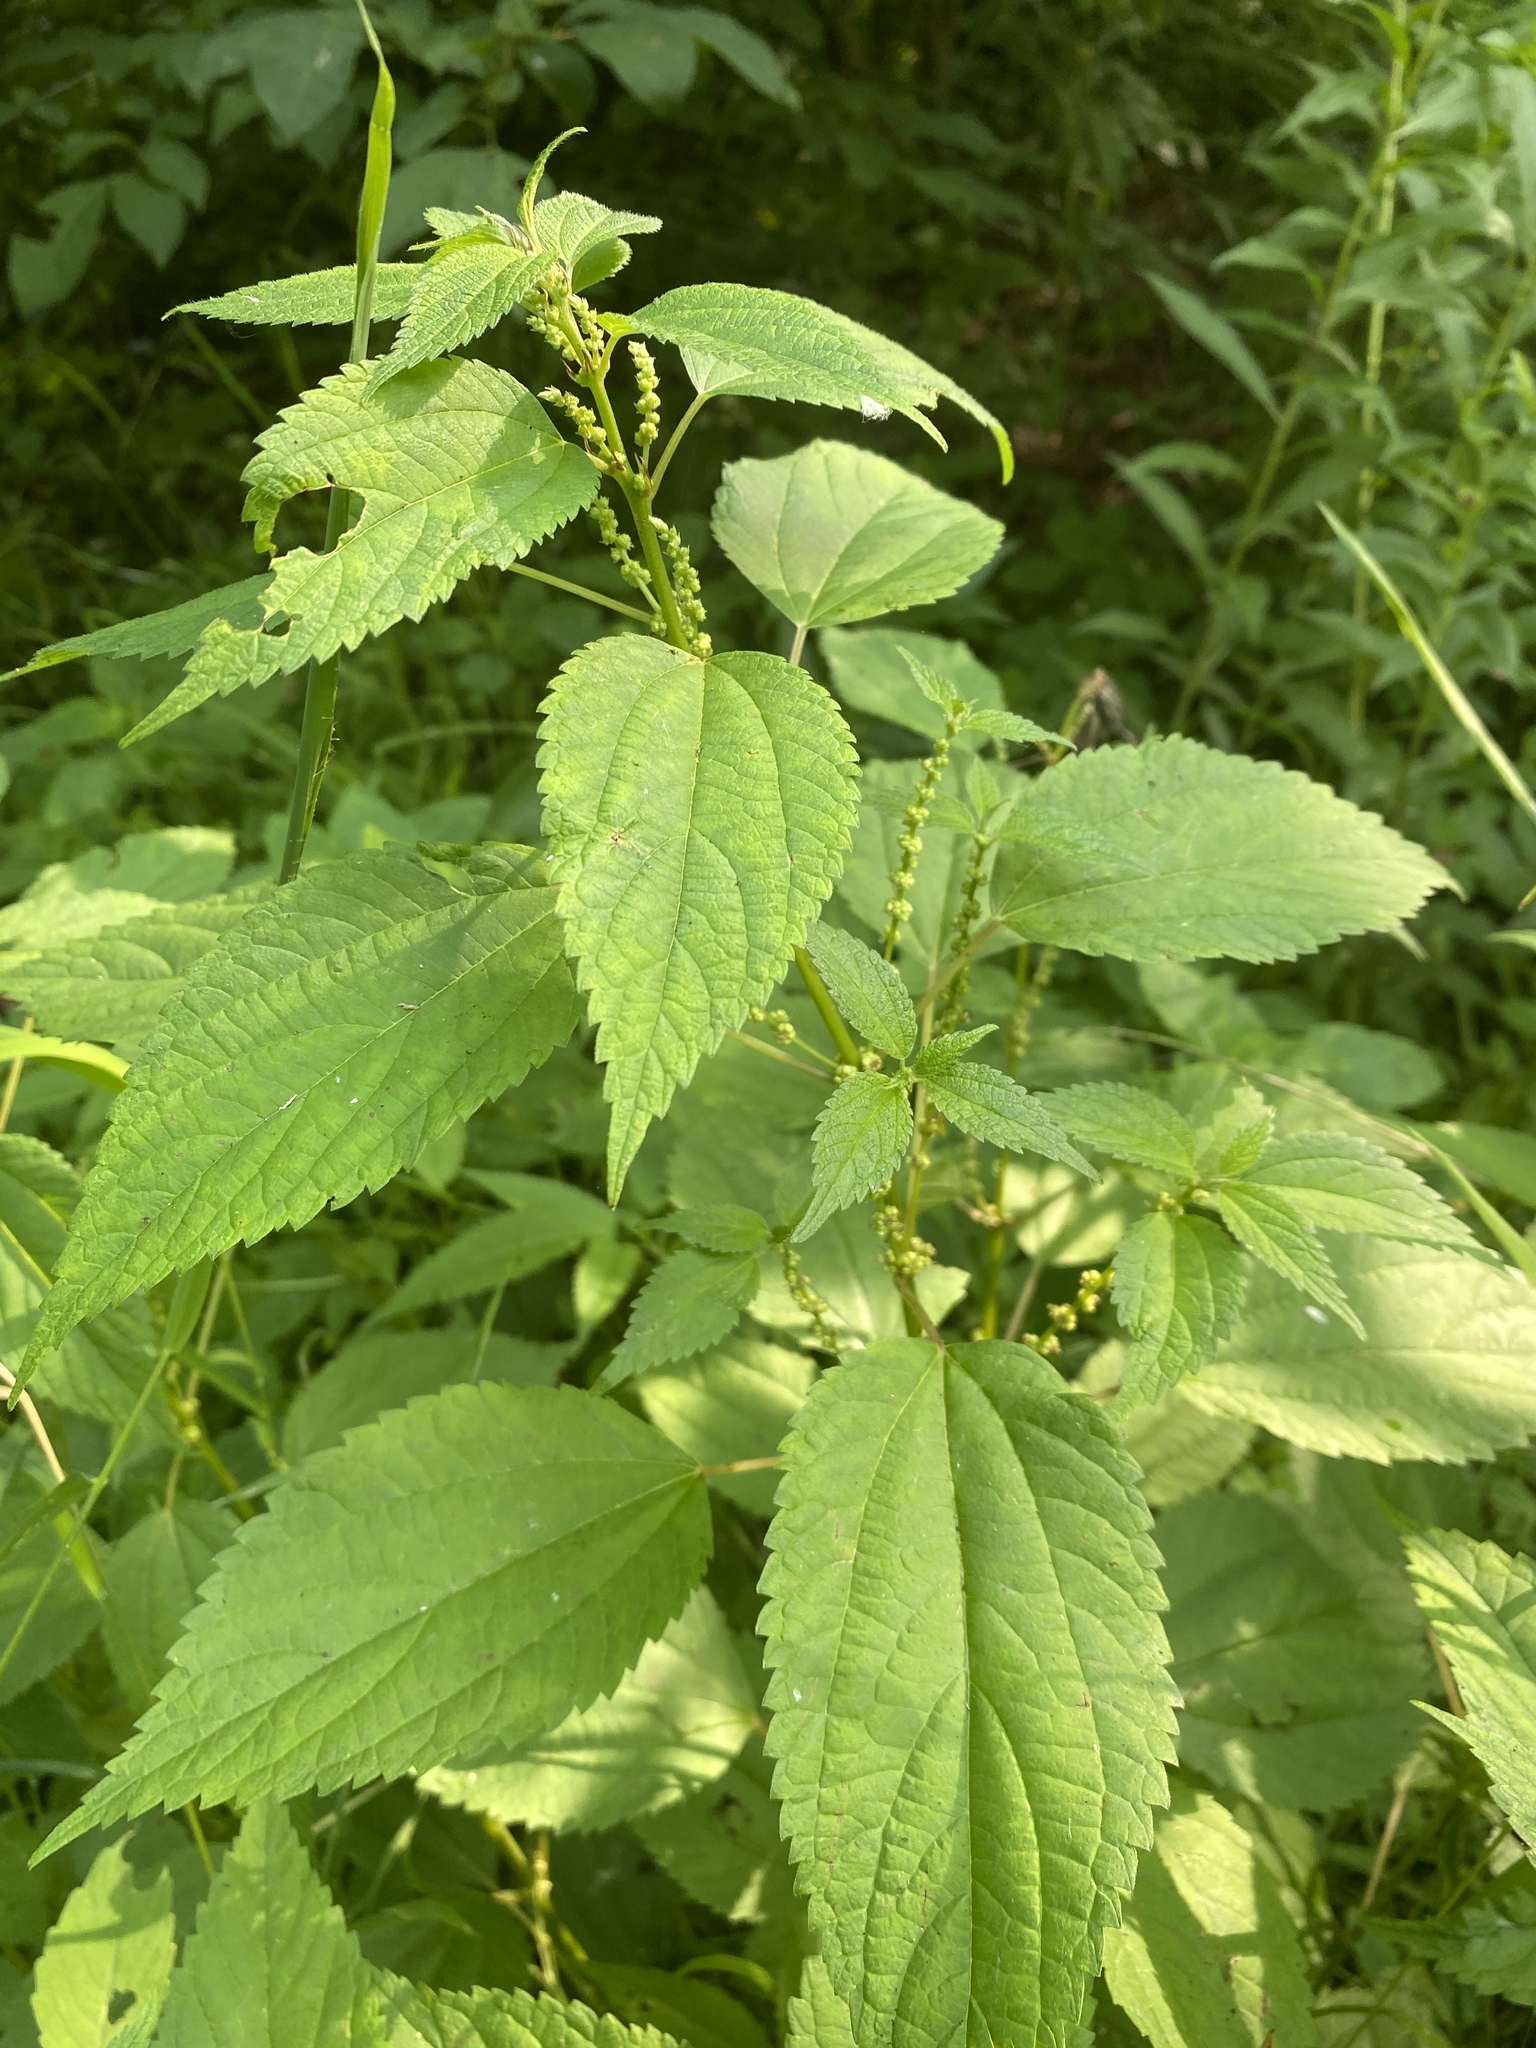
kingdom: Plantae
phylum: Tracheophyta
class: Magnoliopsida
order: Rosales
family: Urticaceae
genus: Boehmeria
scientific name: Boehmeria cylindrica
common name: Bog-hemp
